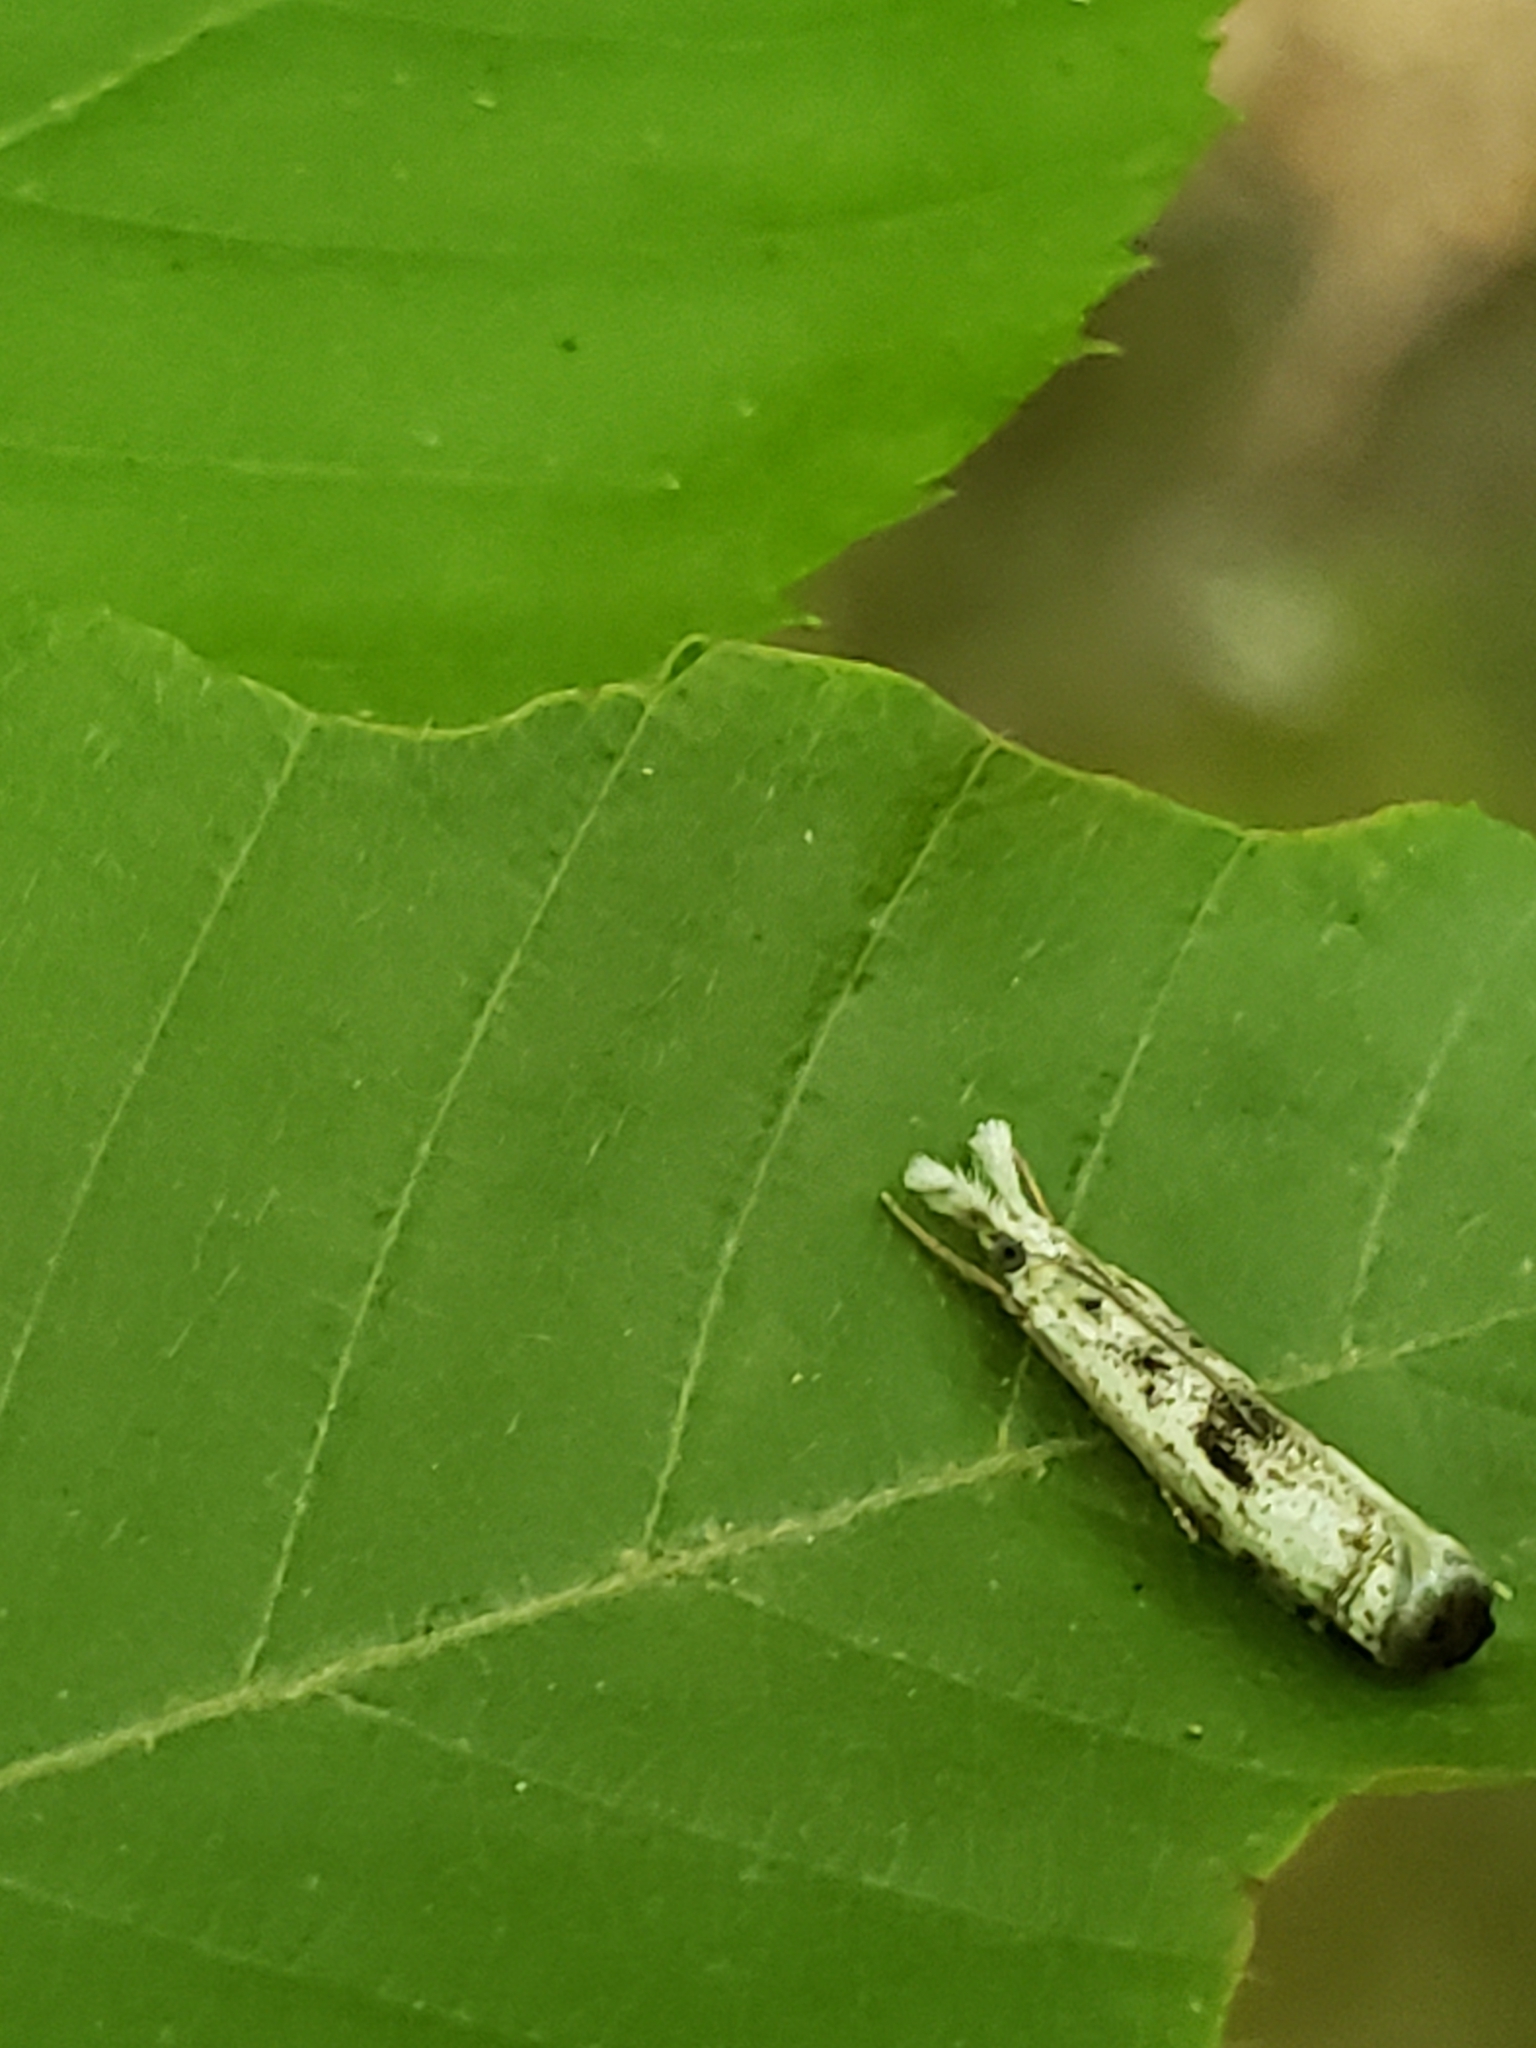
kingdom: Animalia
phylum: Arthropoda
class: Insecta
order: Lepidoptera
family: Crambidae
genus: Microcrambus
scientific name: Microcrambus elegans
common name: Elegant grass-veneer
